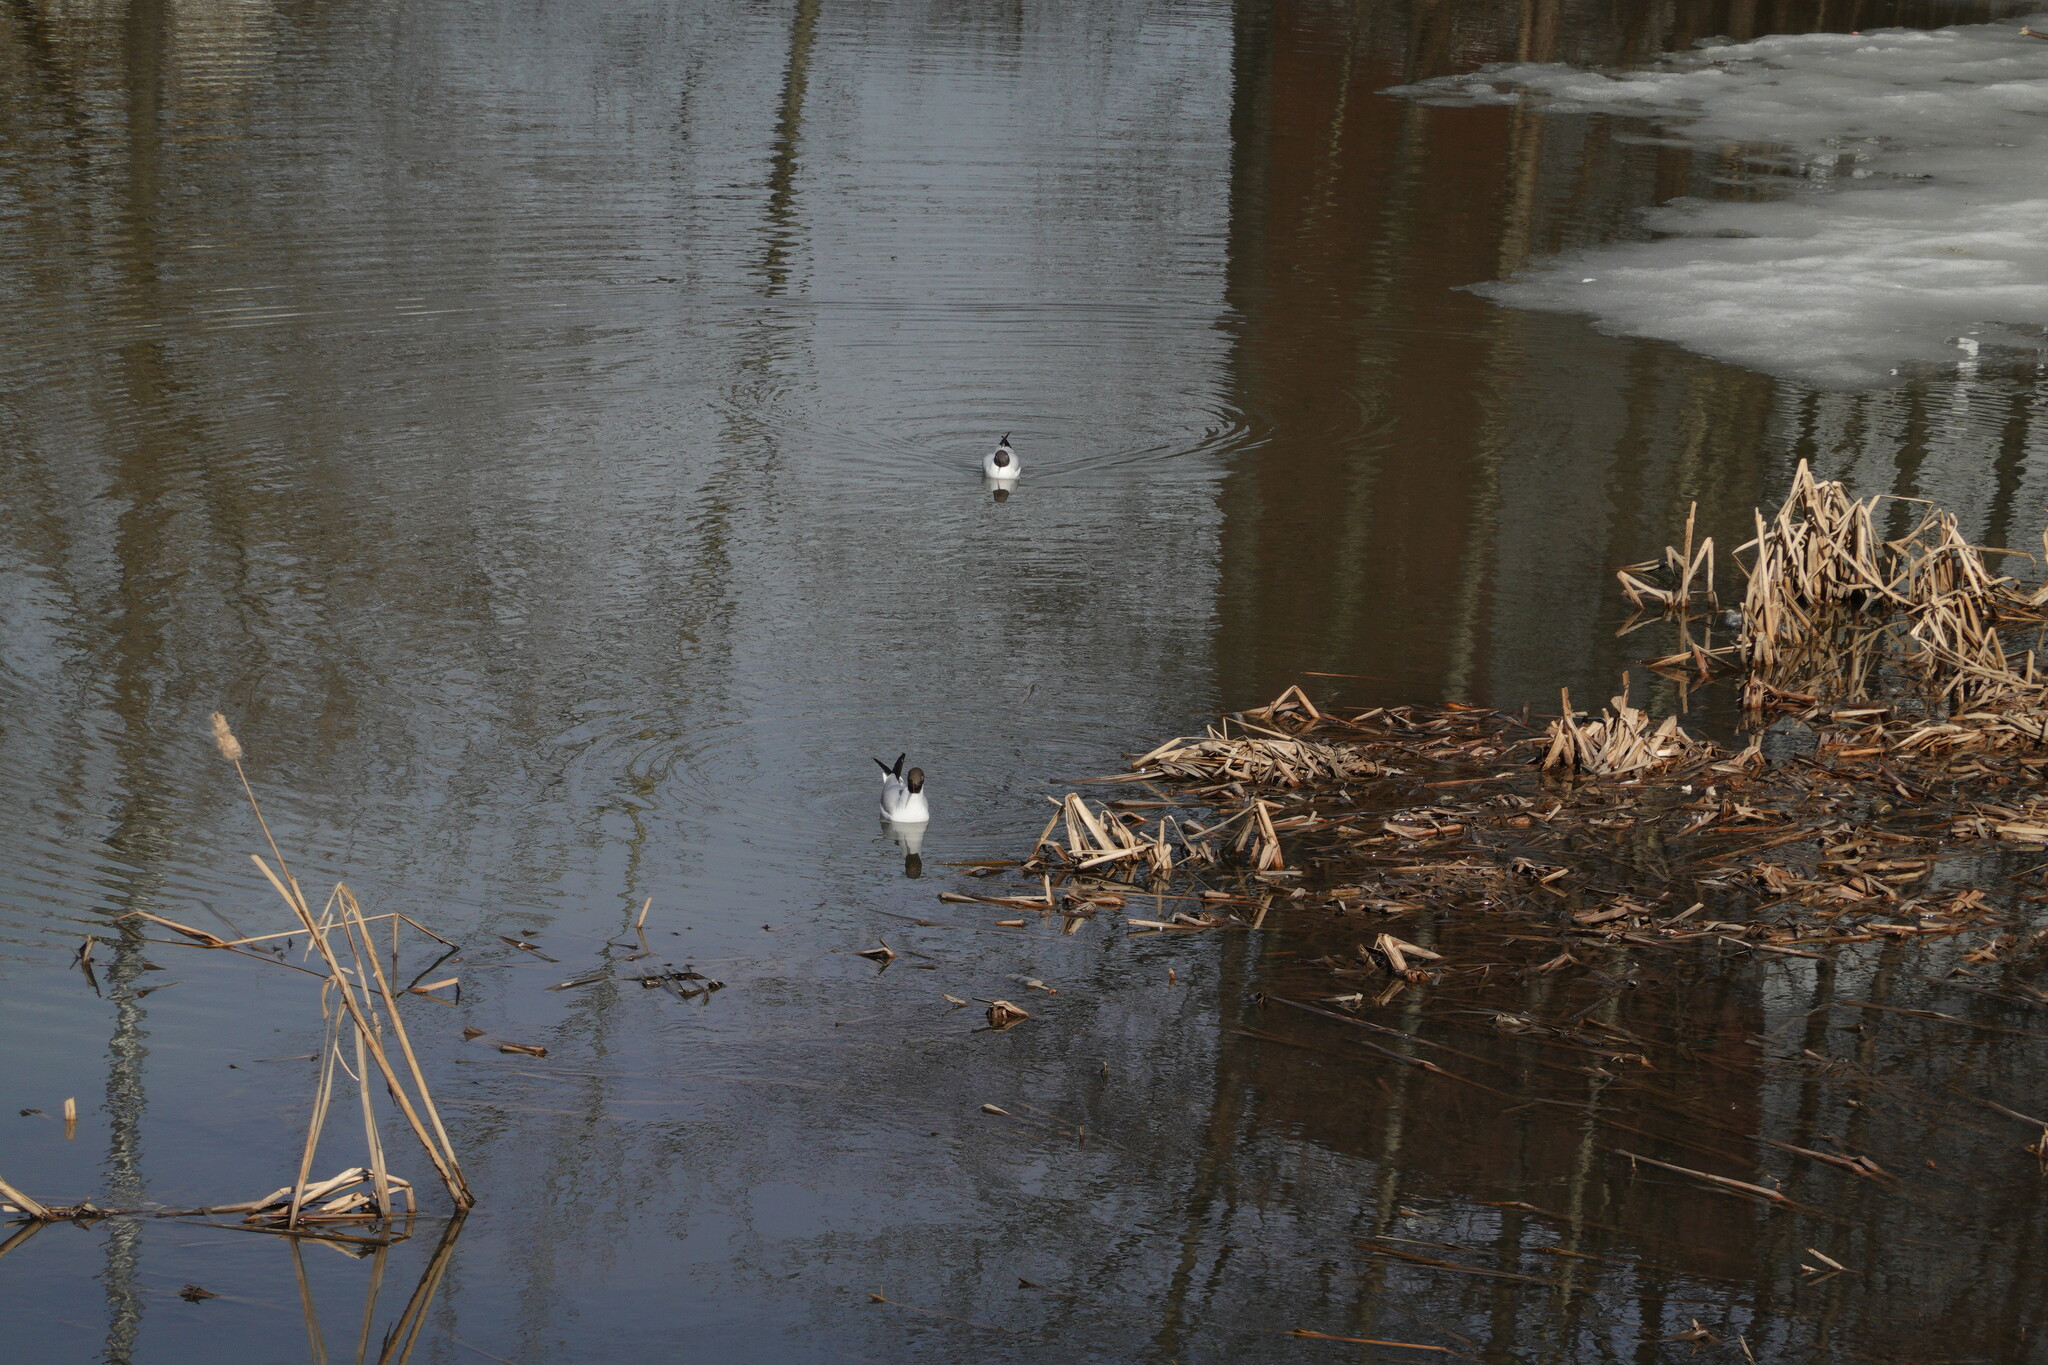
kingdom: Animalia
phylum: Chordata
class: Aves
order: Charadriiformes
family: Laridae
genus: Chroicocephalus
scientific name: Chroicocephalus ridibundus
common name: Black-headed gull
